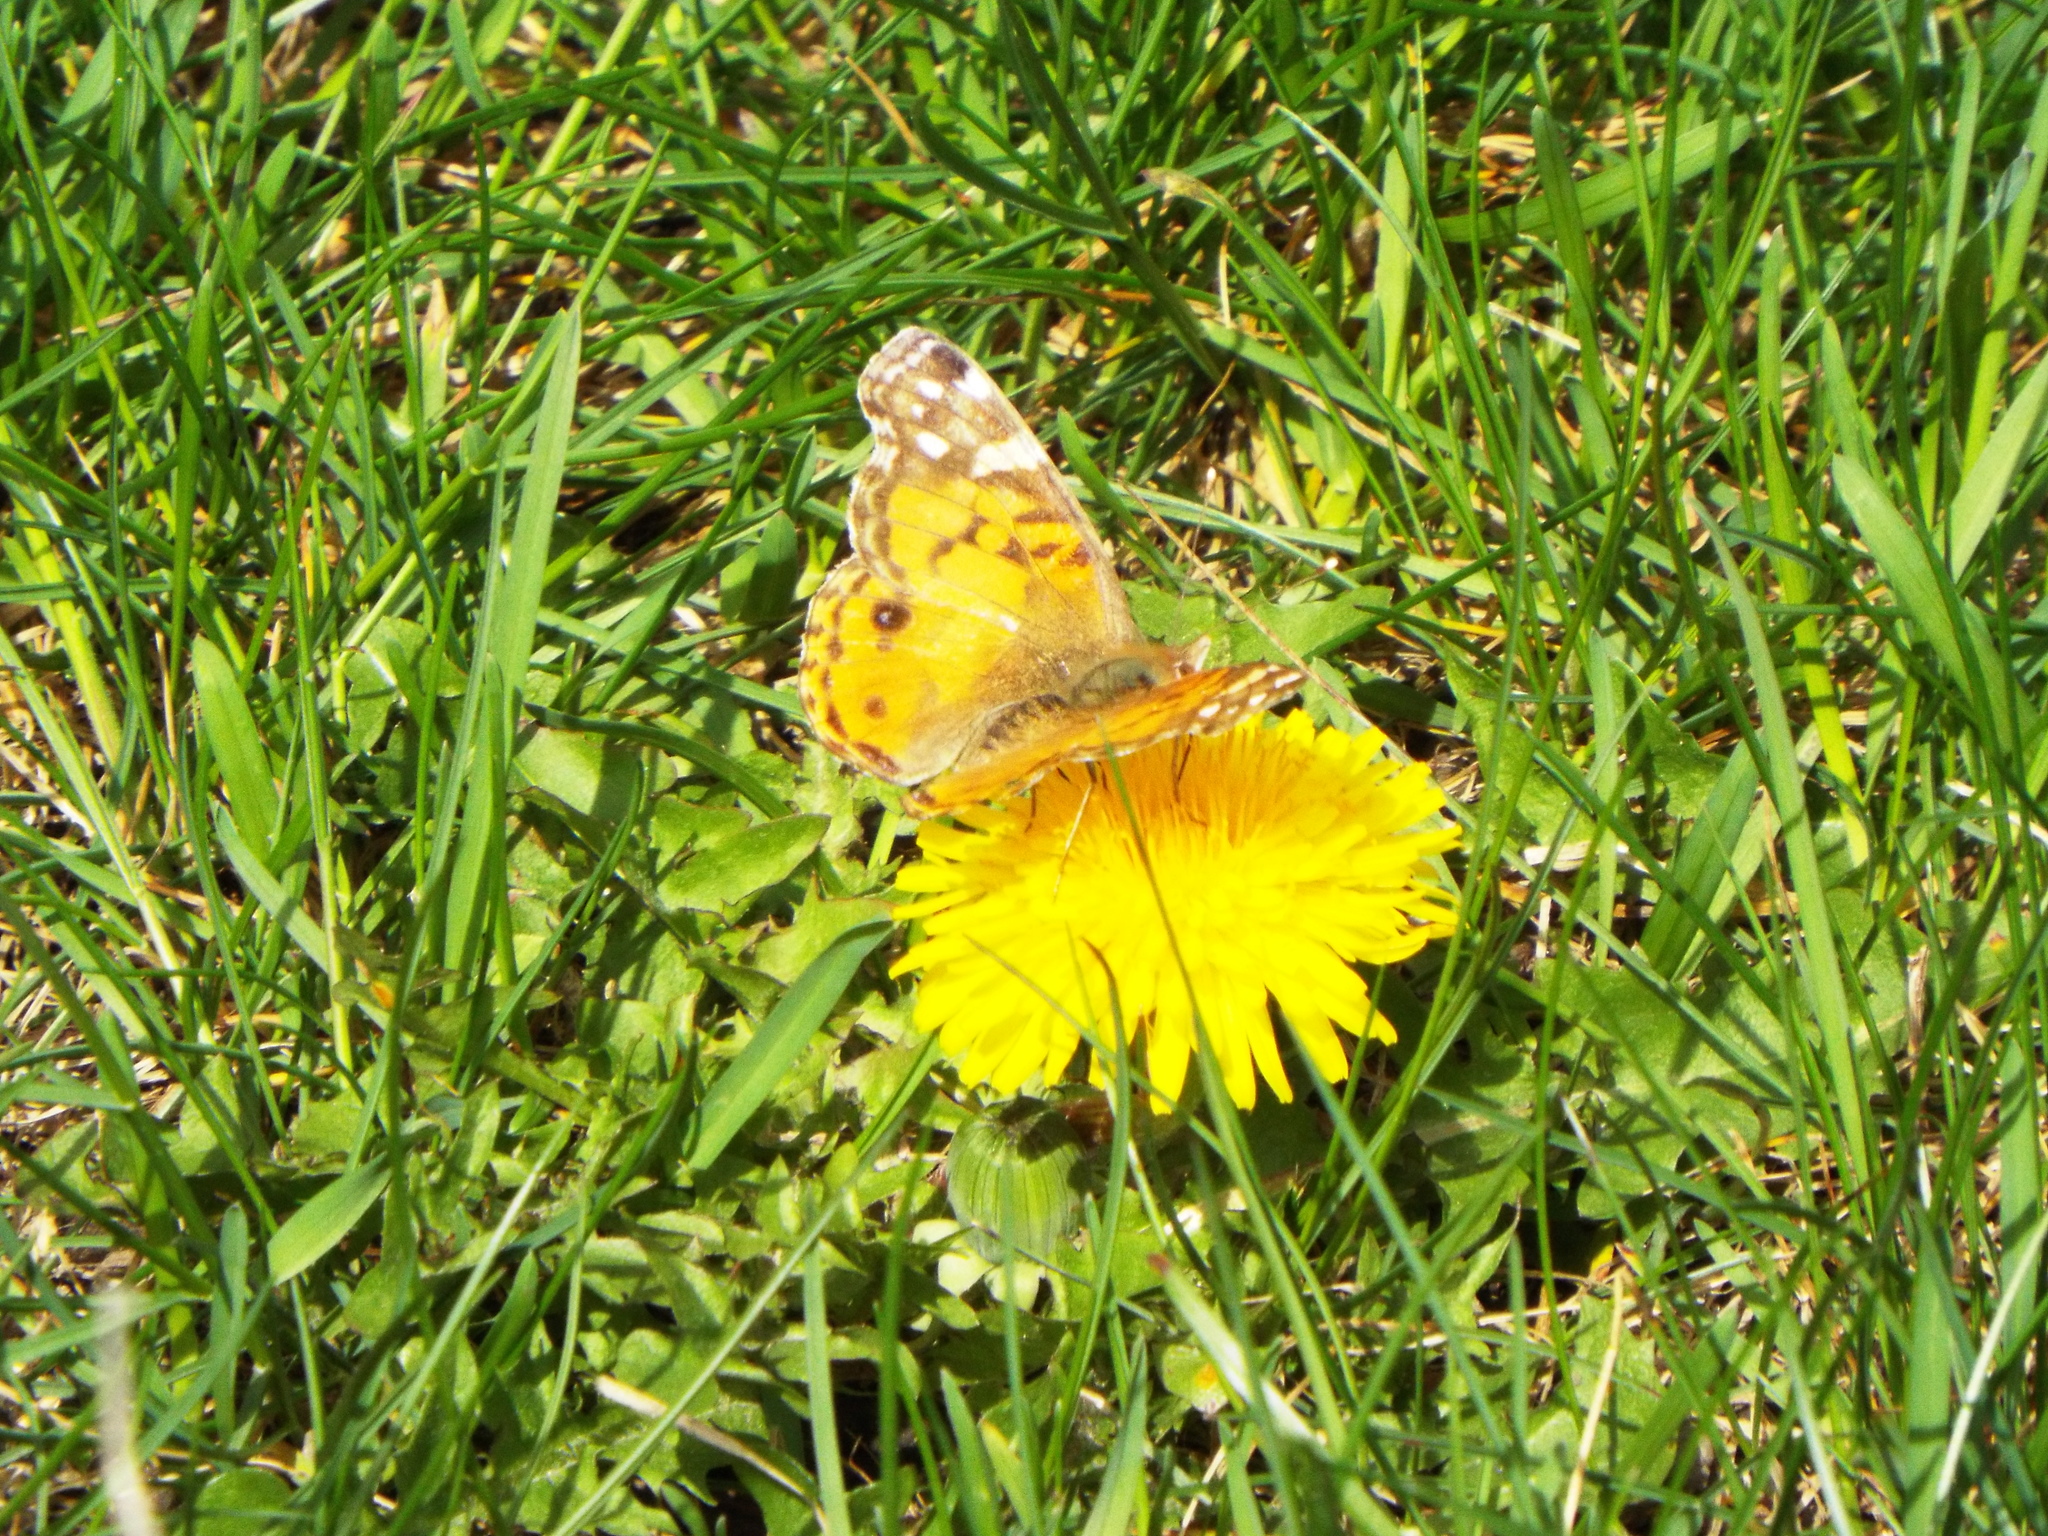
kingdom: Animalia
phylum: Arthropoda
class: Insecta
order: Lepidoptera
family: Nymphalidae
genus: Vanessa
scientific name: Vanessa virginiensis
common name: American lady
